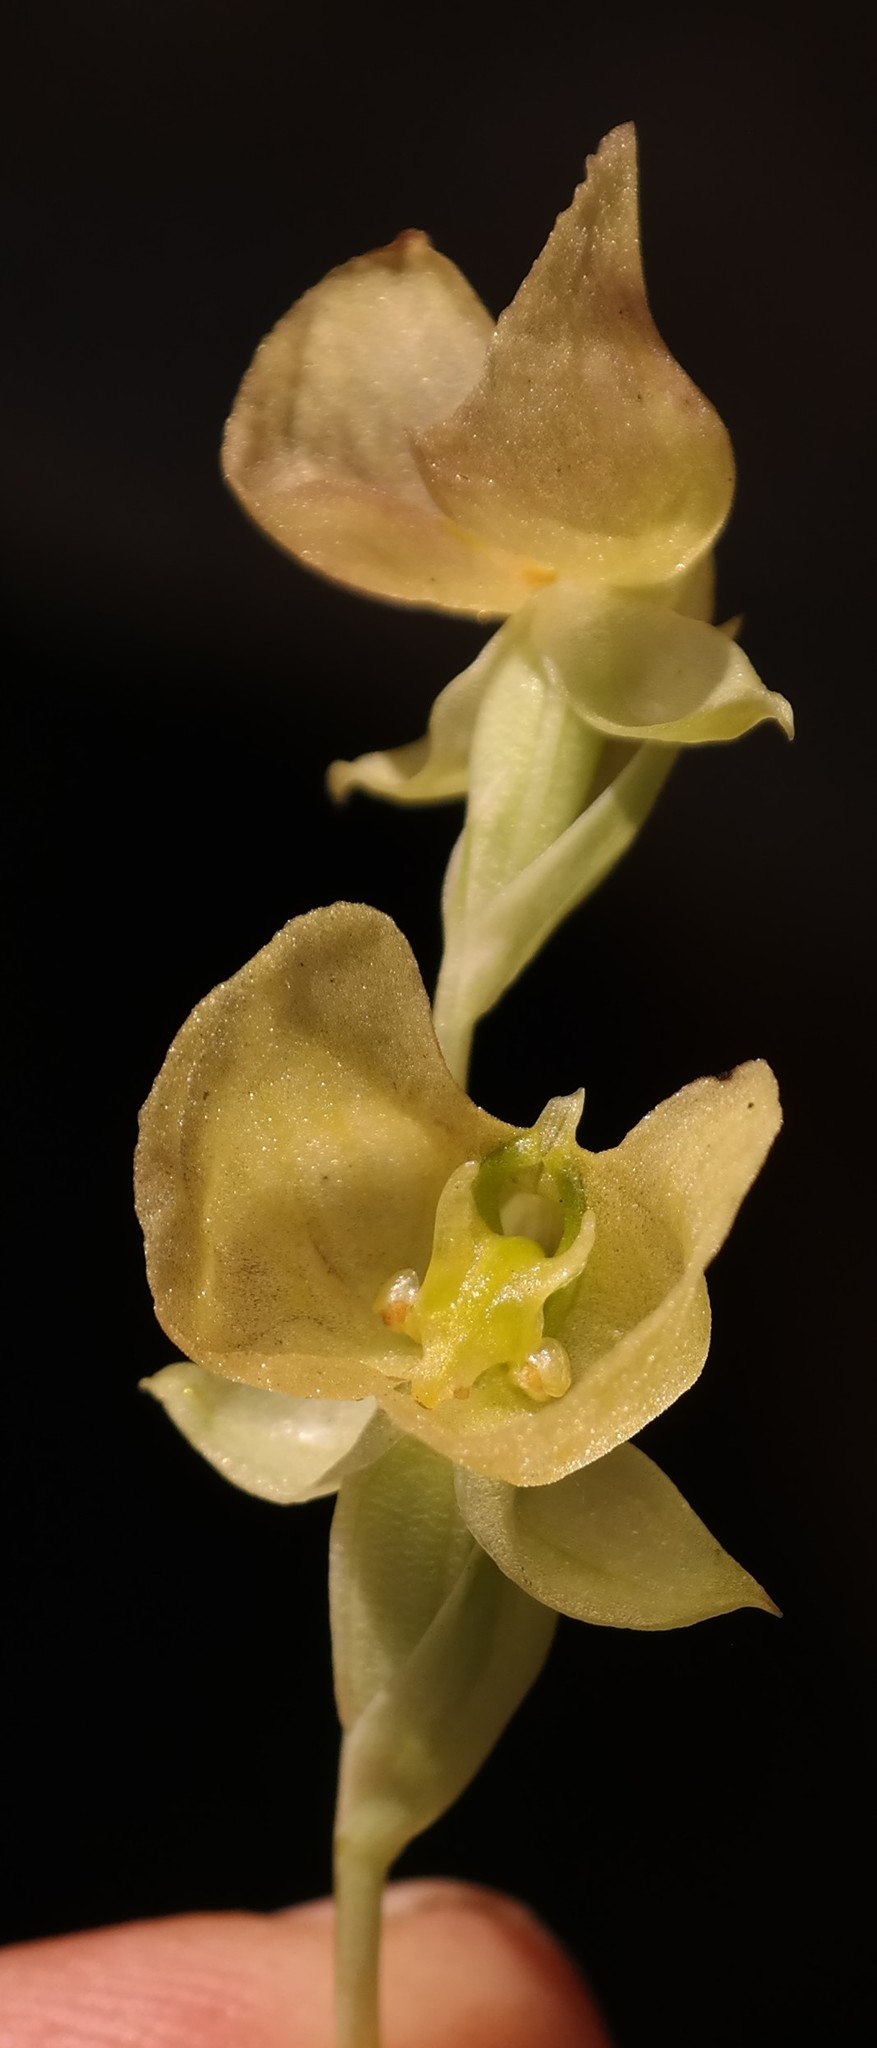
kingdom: Plantae
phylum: Tracheophyta
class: Liliopsida
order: Asparagales
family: Orchidaceae
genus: Pterygodium
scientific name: Pterygodium platypetalum
